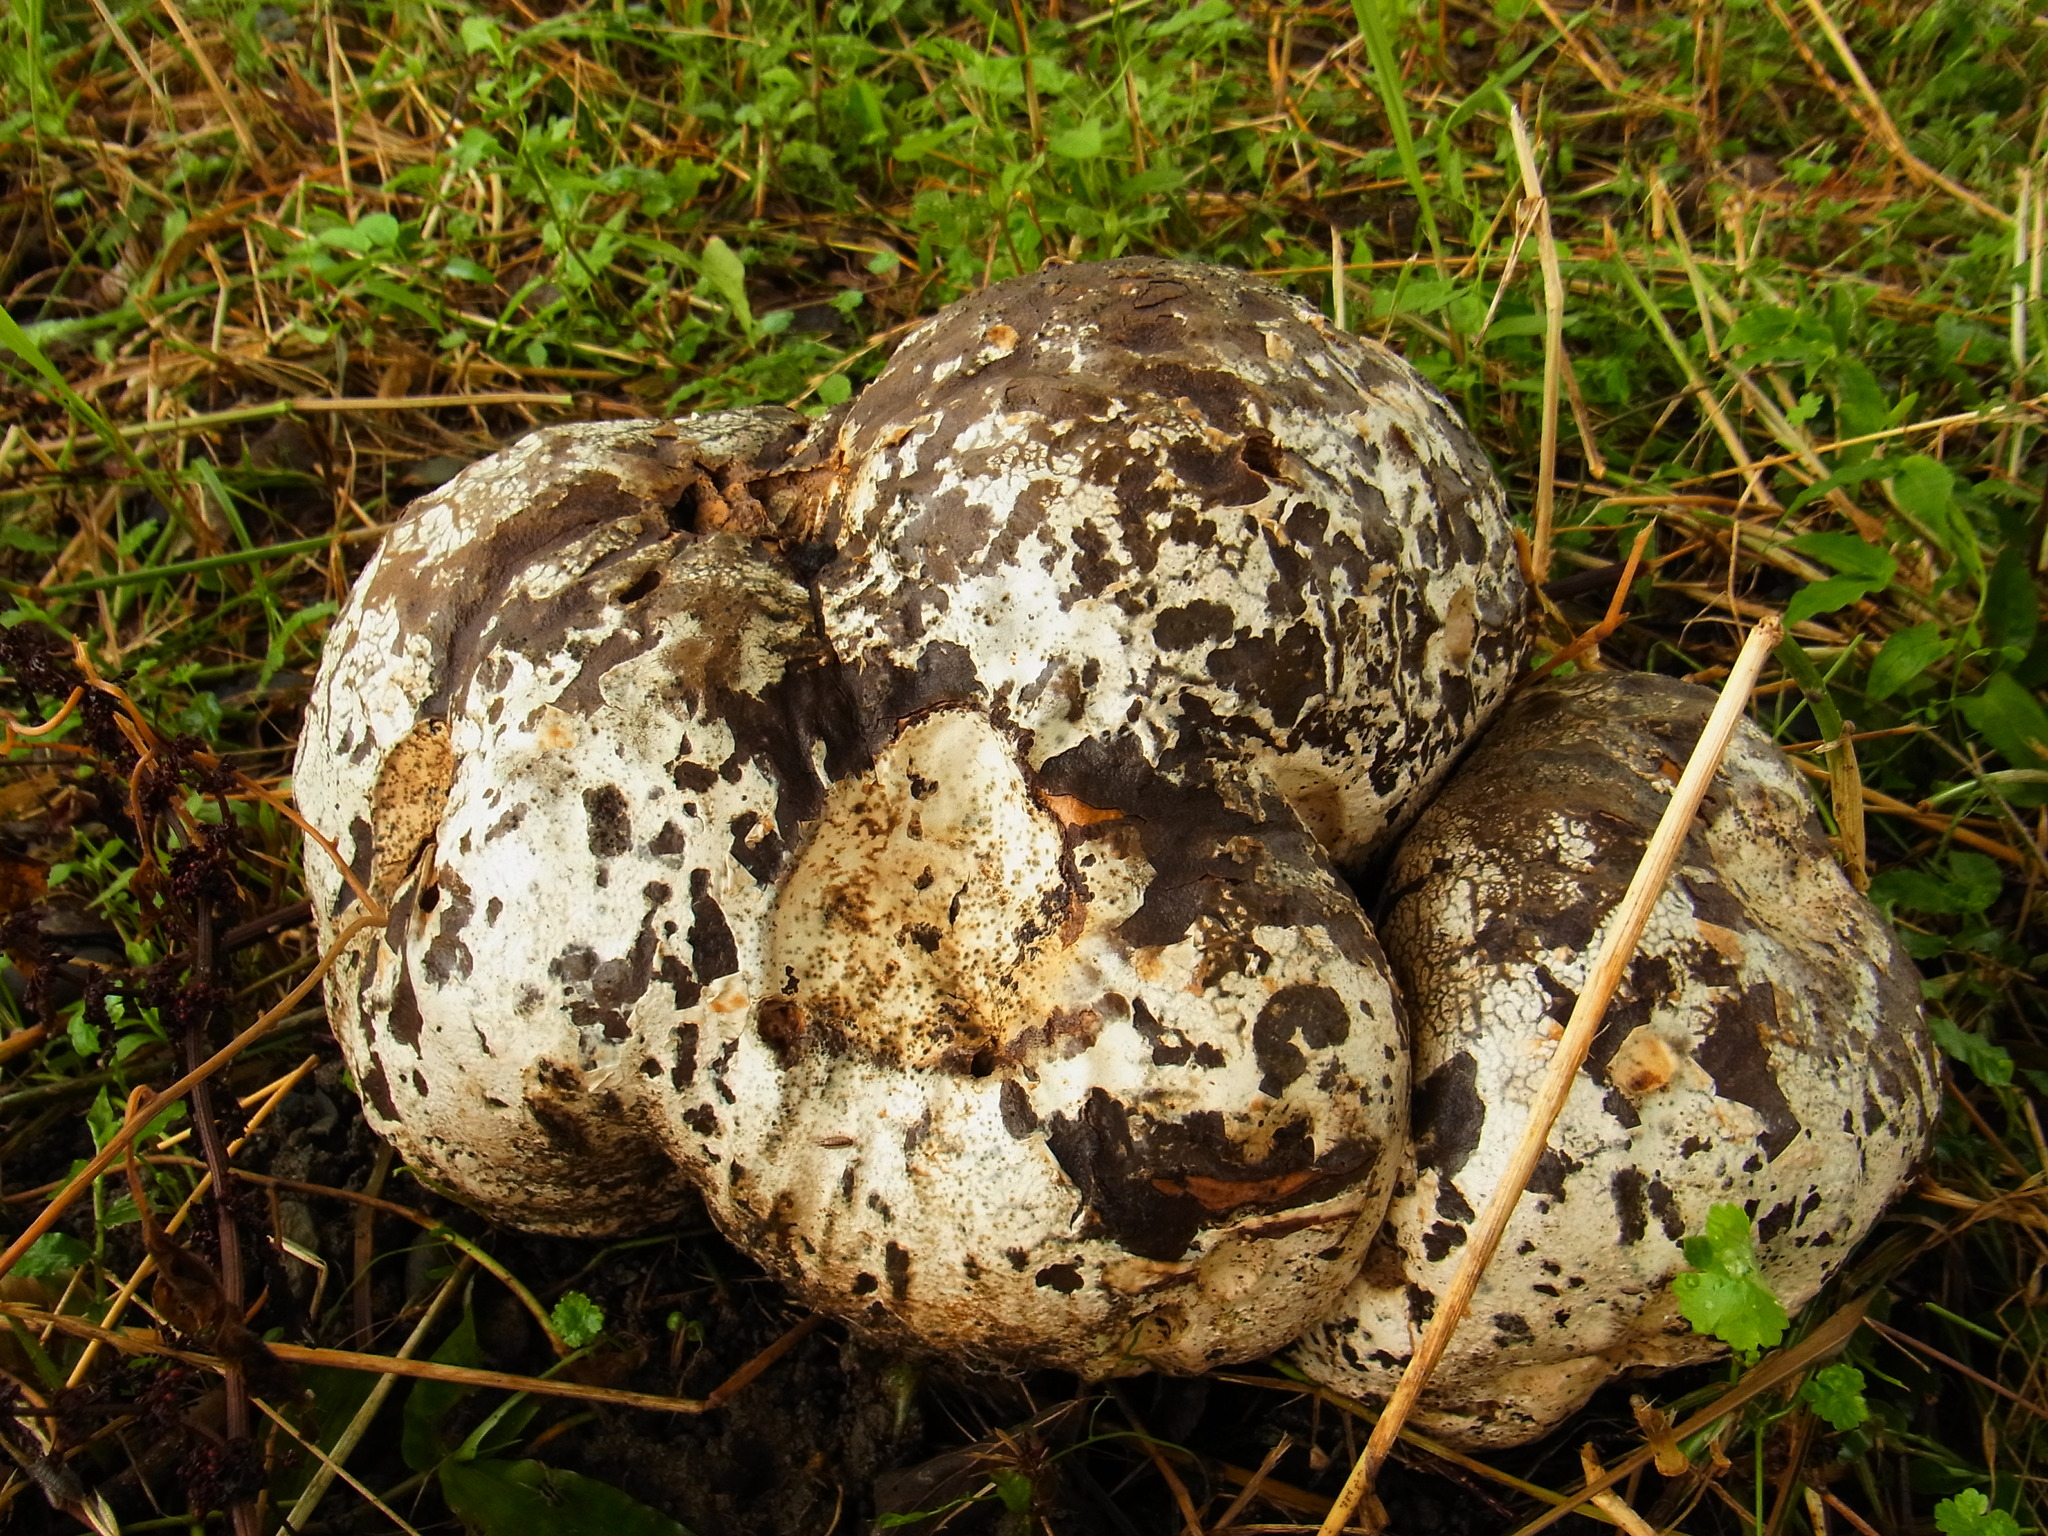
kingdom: Fungi
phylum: Basidiomycota
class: Agaricomycetes
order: Agaricales
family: Lycoperdaceae
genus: Calvatia
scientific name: Calvatia nipponica
